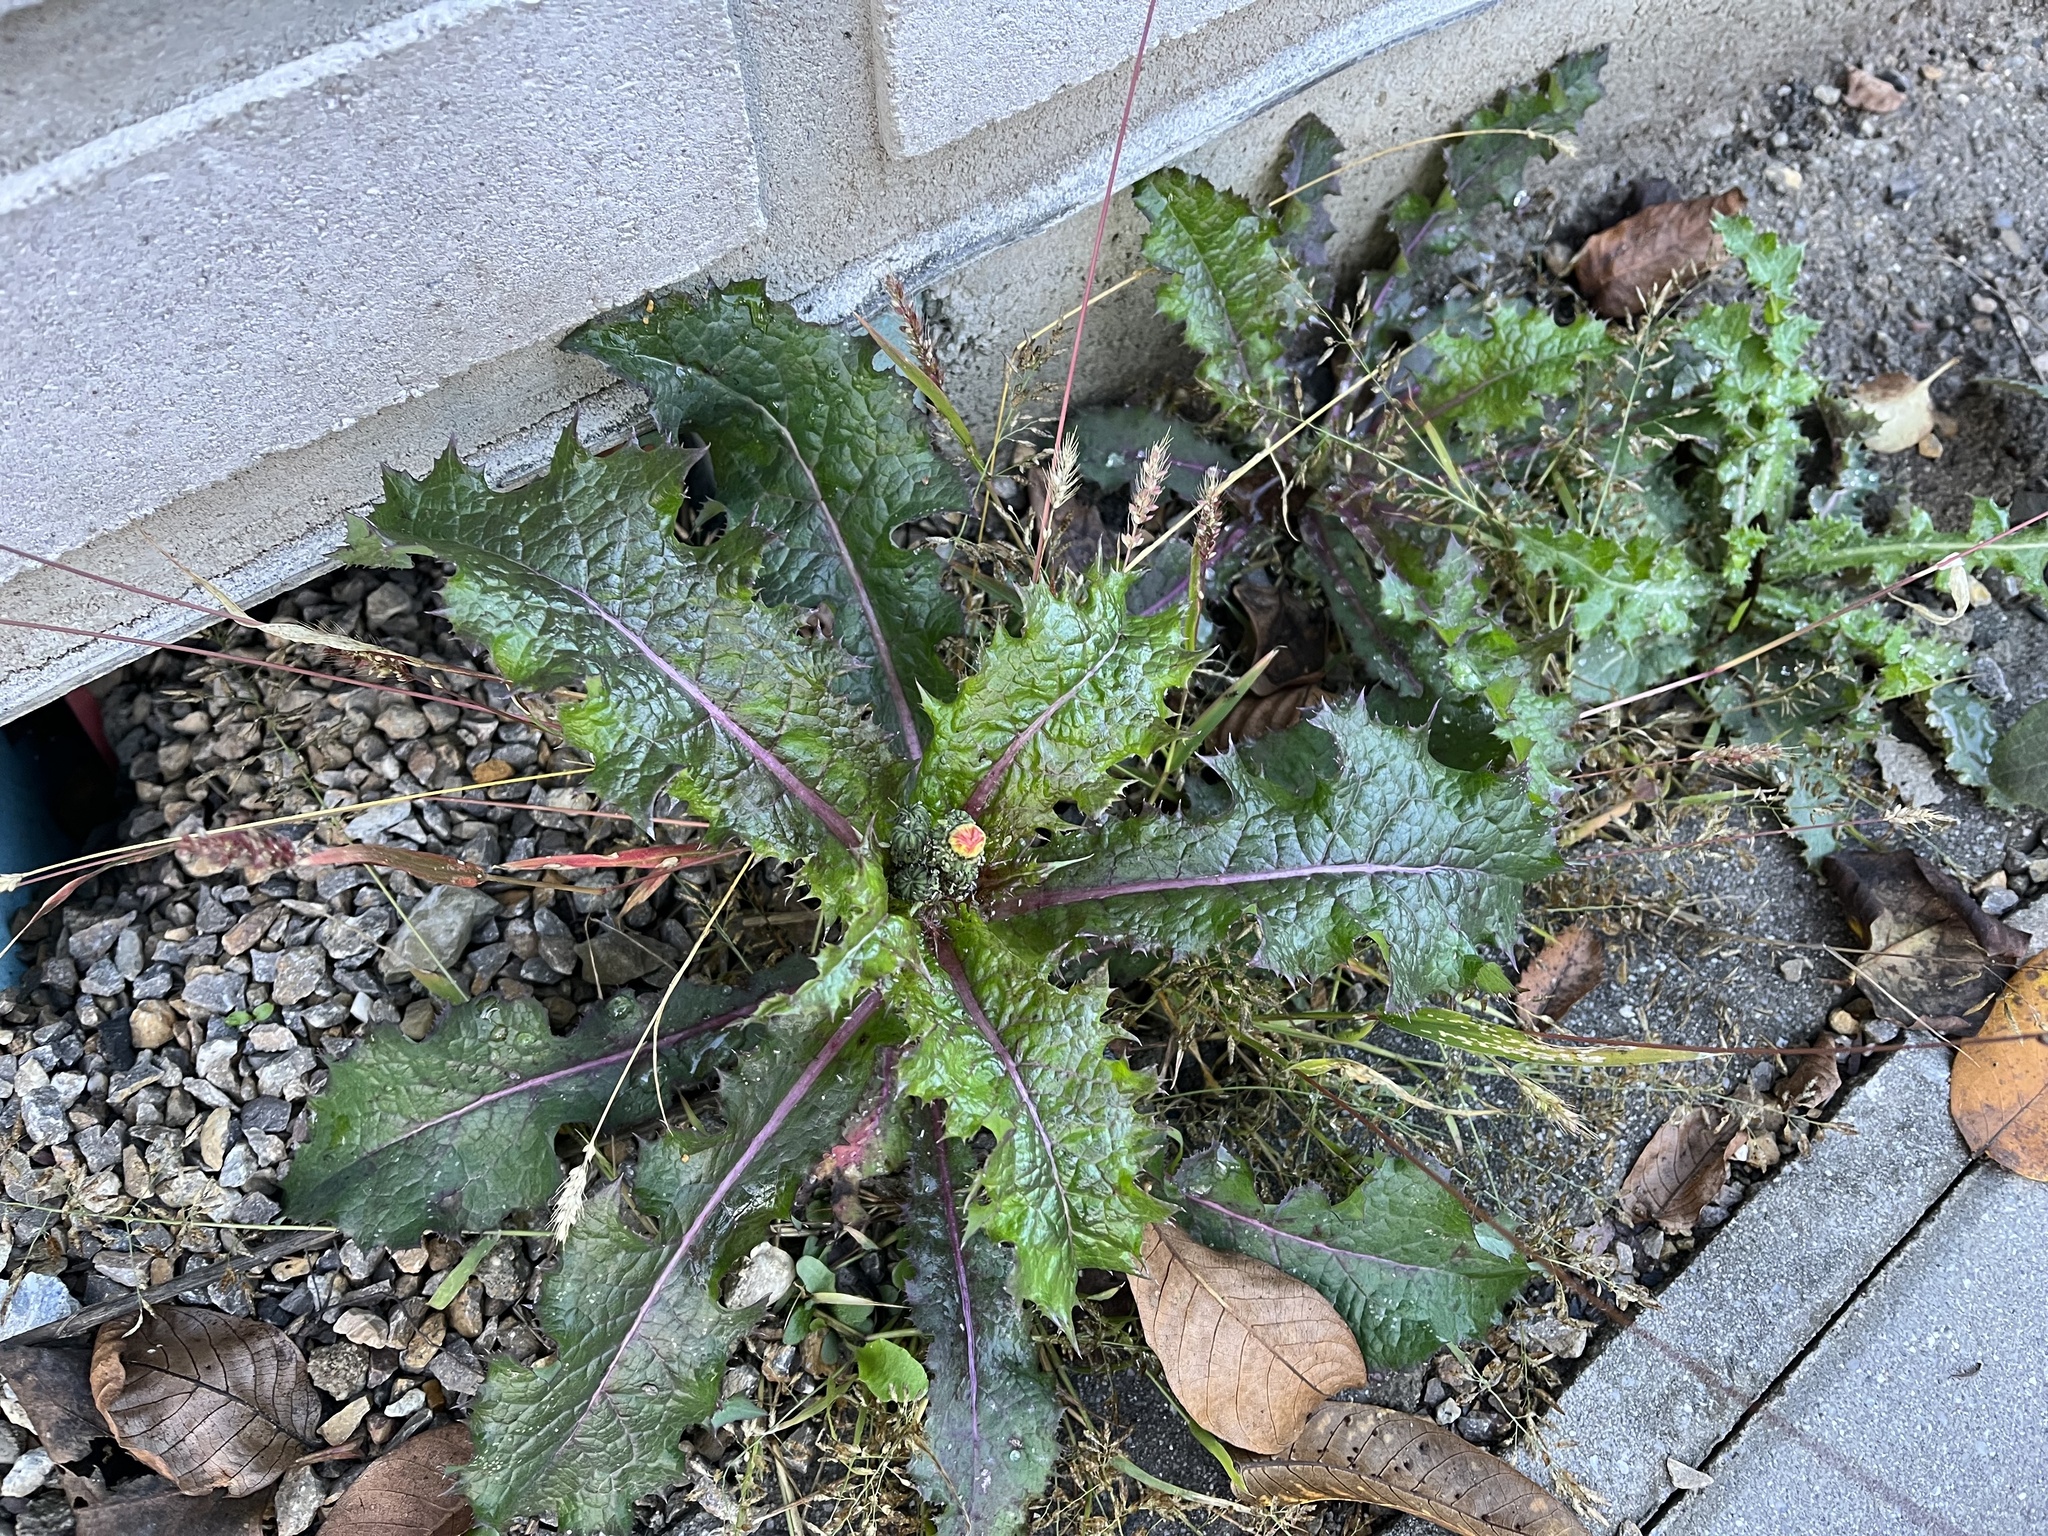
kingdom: Plantae
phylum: Tracheophyta
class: Magnoliopsida
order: Asterales
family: Asteraceae
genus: Sonchus
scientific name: Sonchus asper
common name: Prickly sow-thistle
